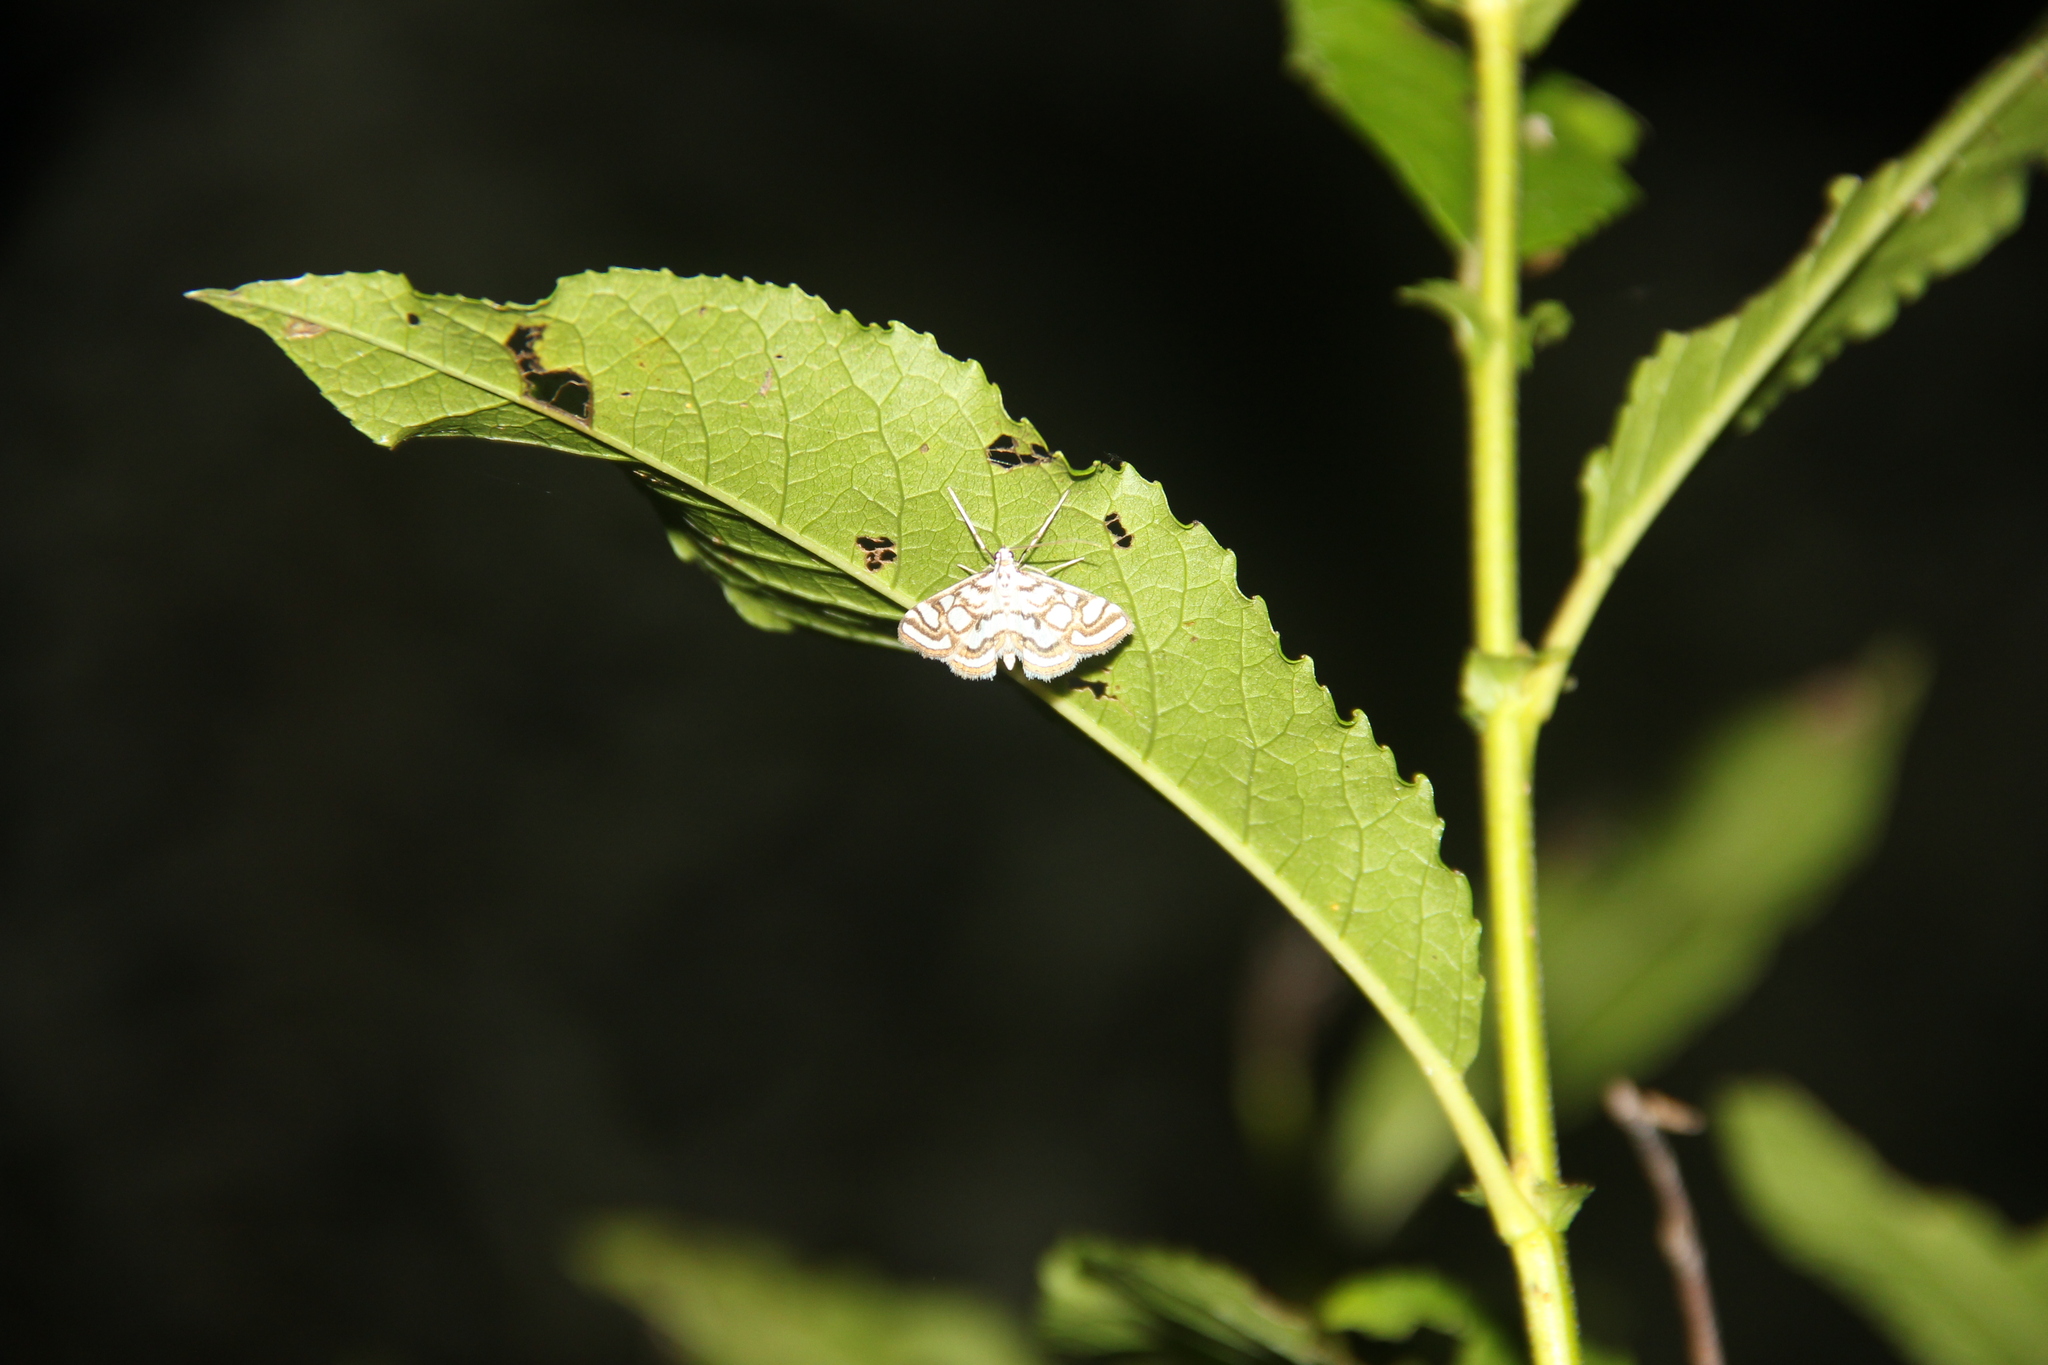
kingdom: Animalia
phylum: Arthropoda
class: Insecta
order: Lepidoptera
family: Crambidae
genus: Nymphula
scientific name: Nymphula nitidulata
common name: Beautiful china mark
